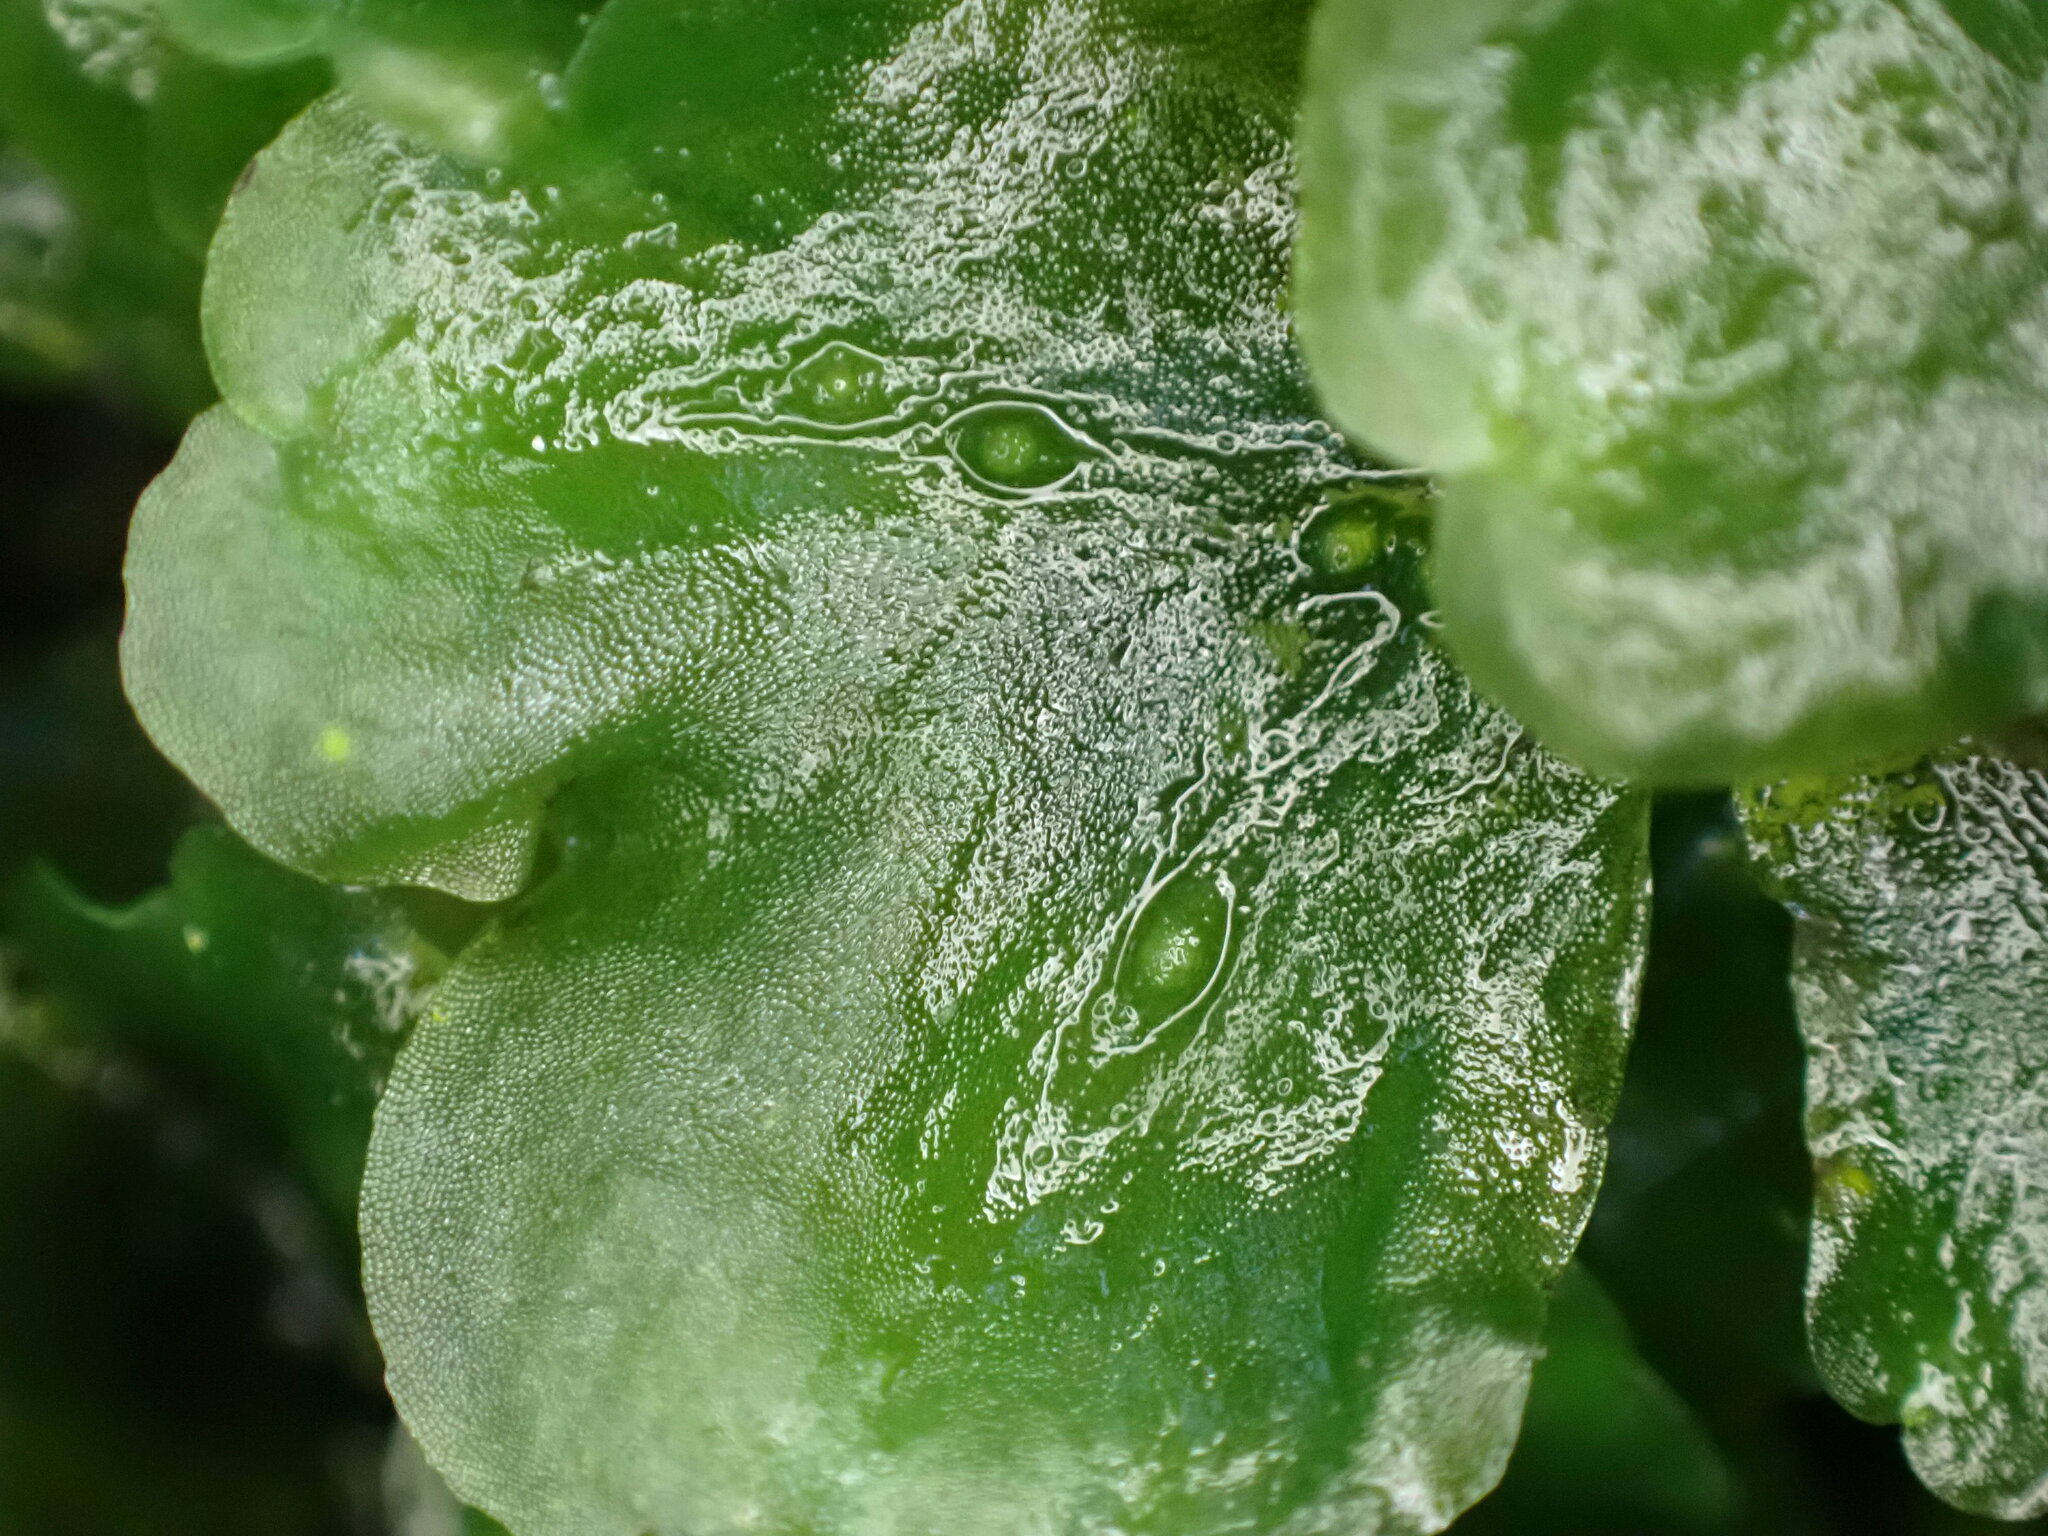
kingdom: Plantae
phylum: Marchantiophyta
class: Jungermanniopsida
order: Pelliales
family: Pelliaceae
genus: Pellia
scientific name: Pellia neesiana
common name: Nees  pellia
